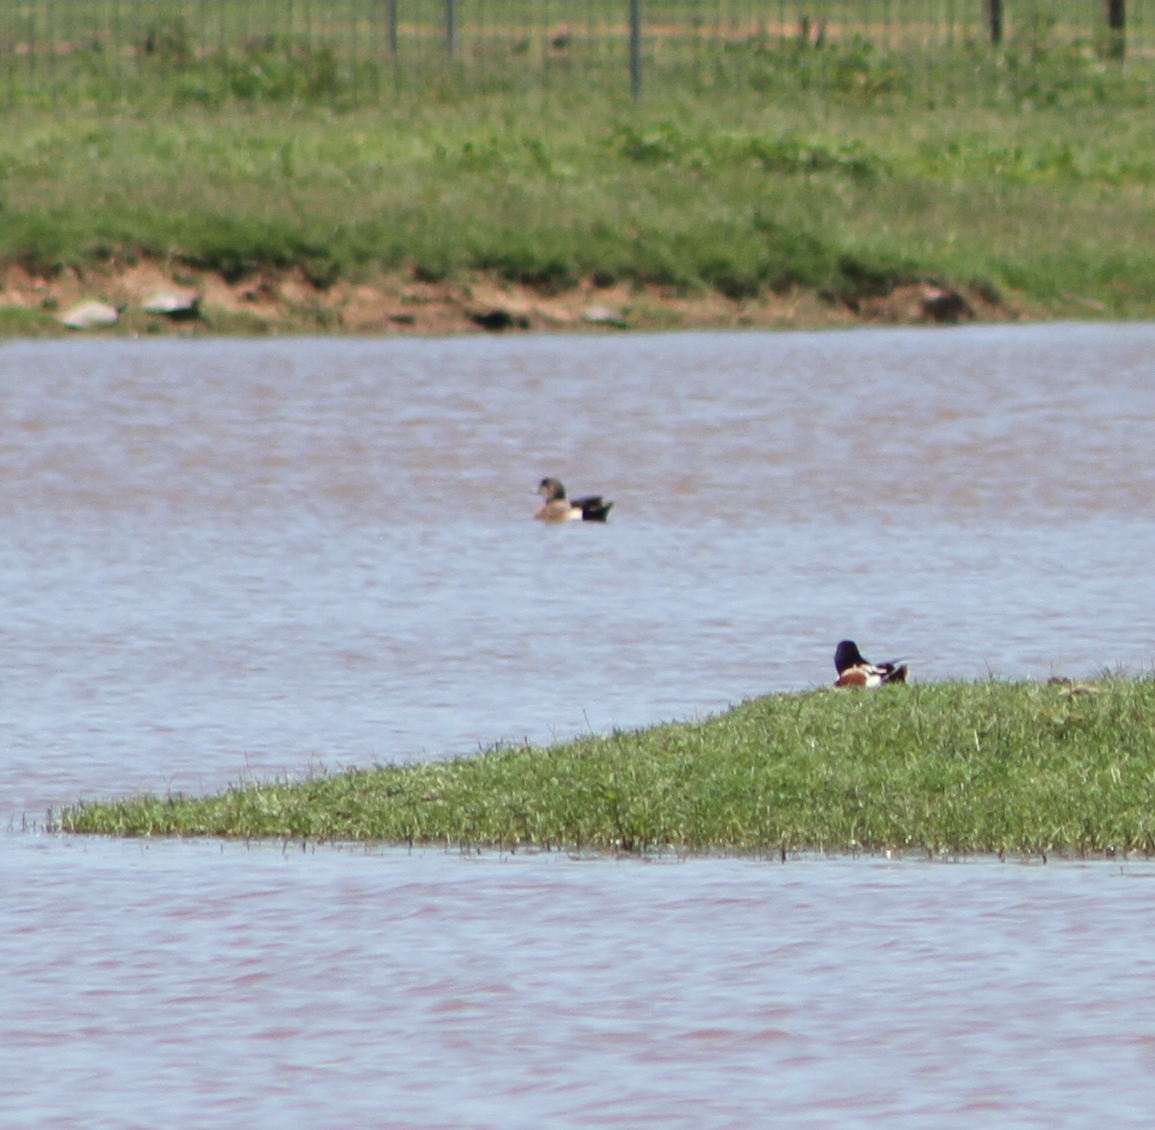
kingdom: Animalia
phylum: Chordata
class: Aves
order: Anseriformes
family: Anatidae
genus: Mareca
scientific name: Mareca americana
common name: American wigeon
